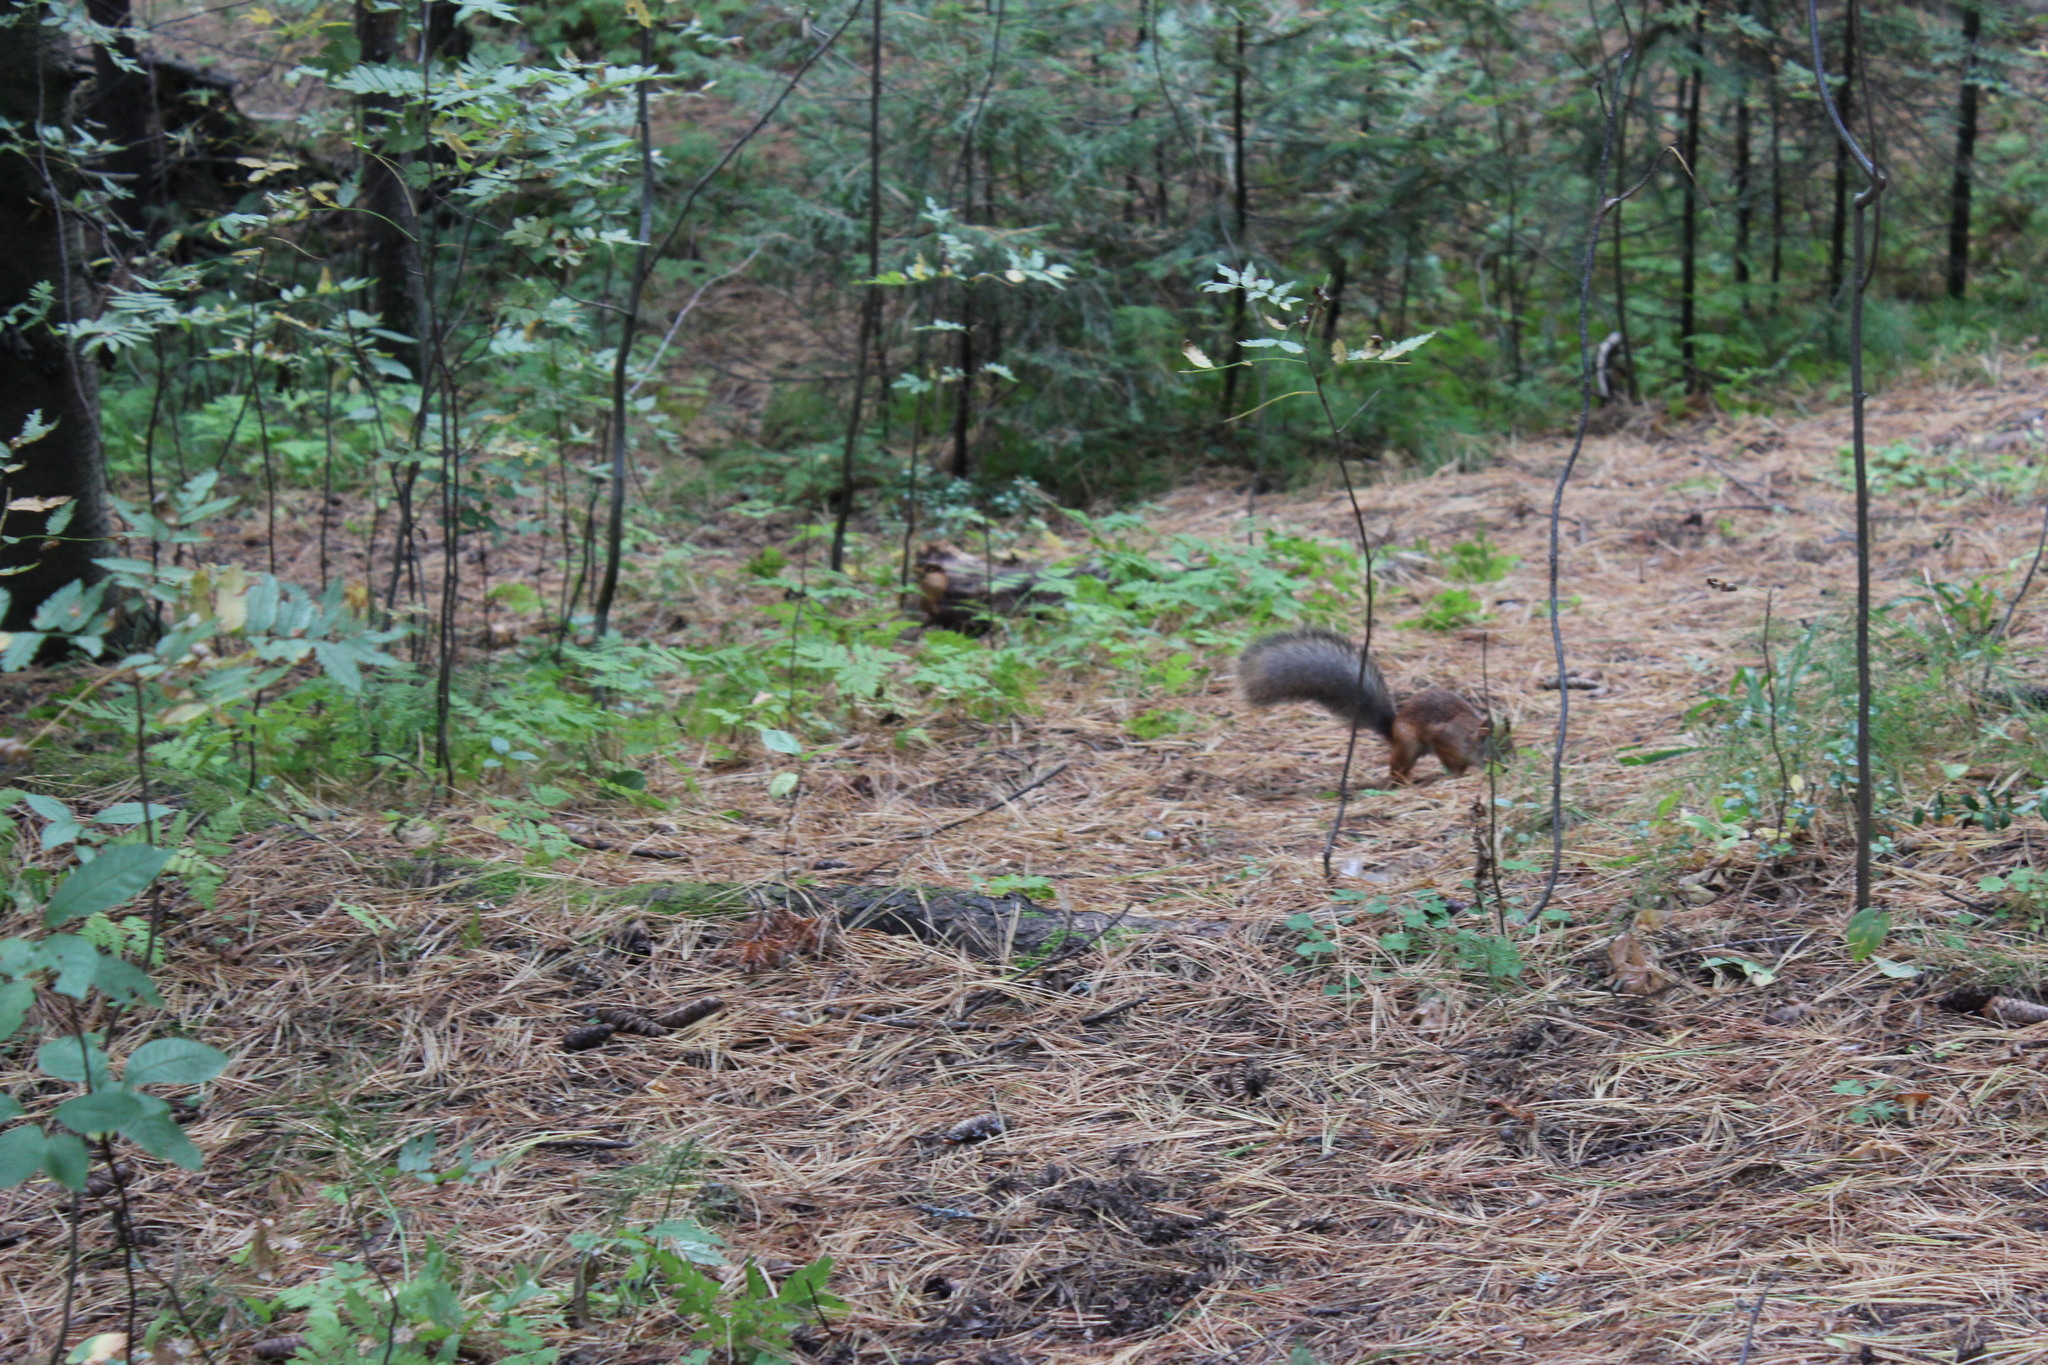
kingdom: Animalia
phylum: Chordata
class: Mammalia
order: Rodentia
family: Sciuridae
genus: Sciurus
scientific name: Sciurus vulgaris
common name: Eurasian red squirrel
